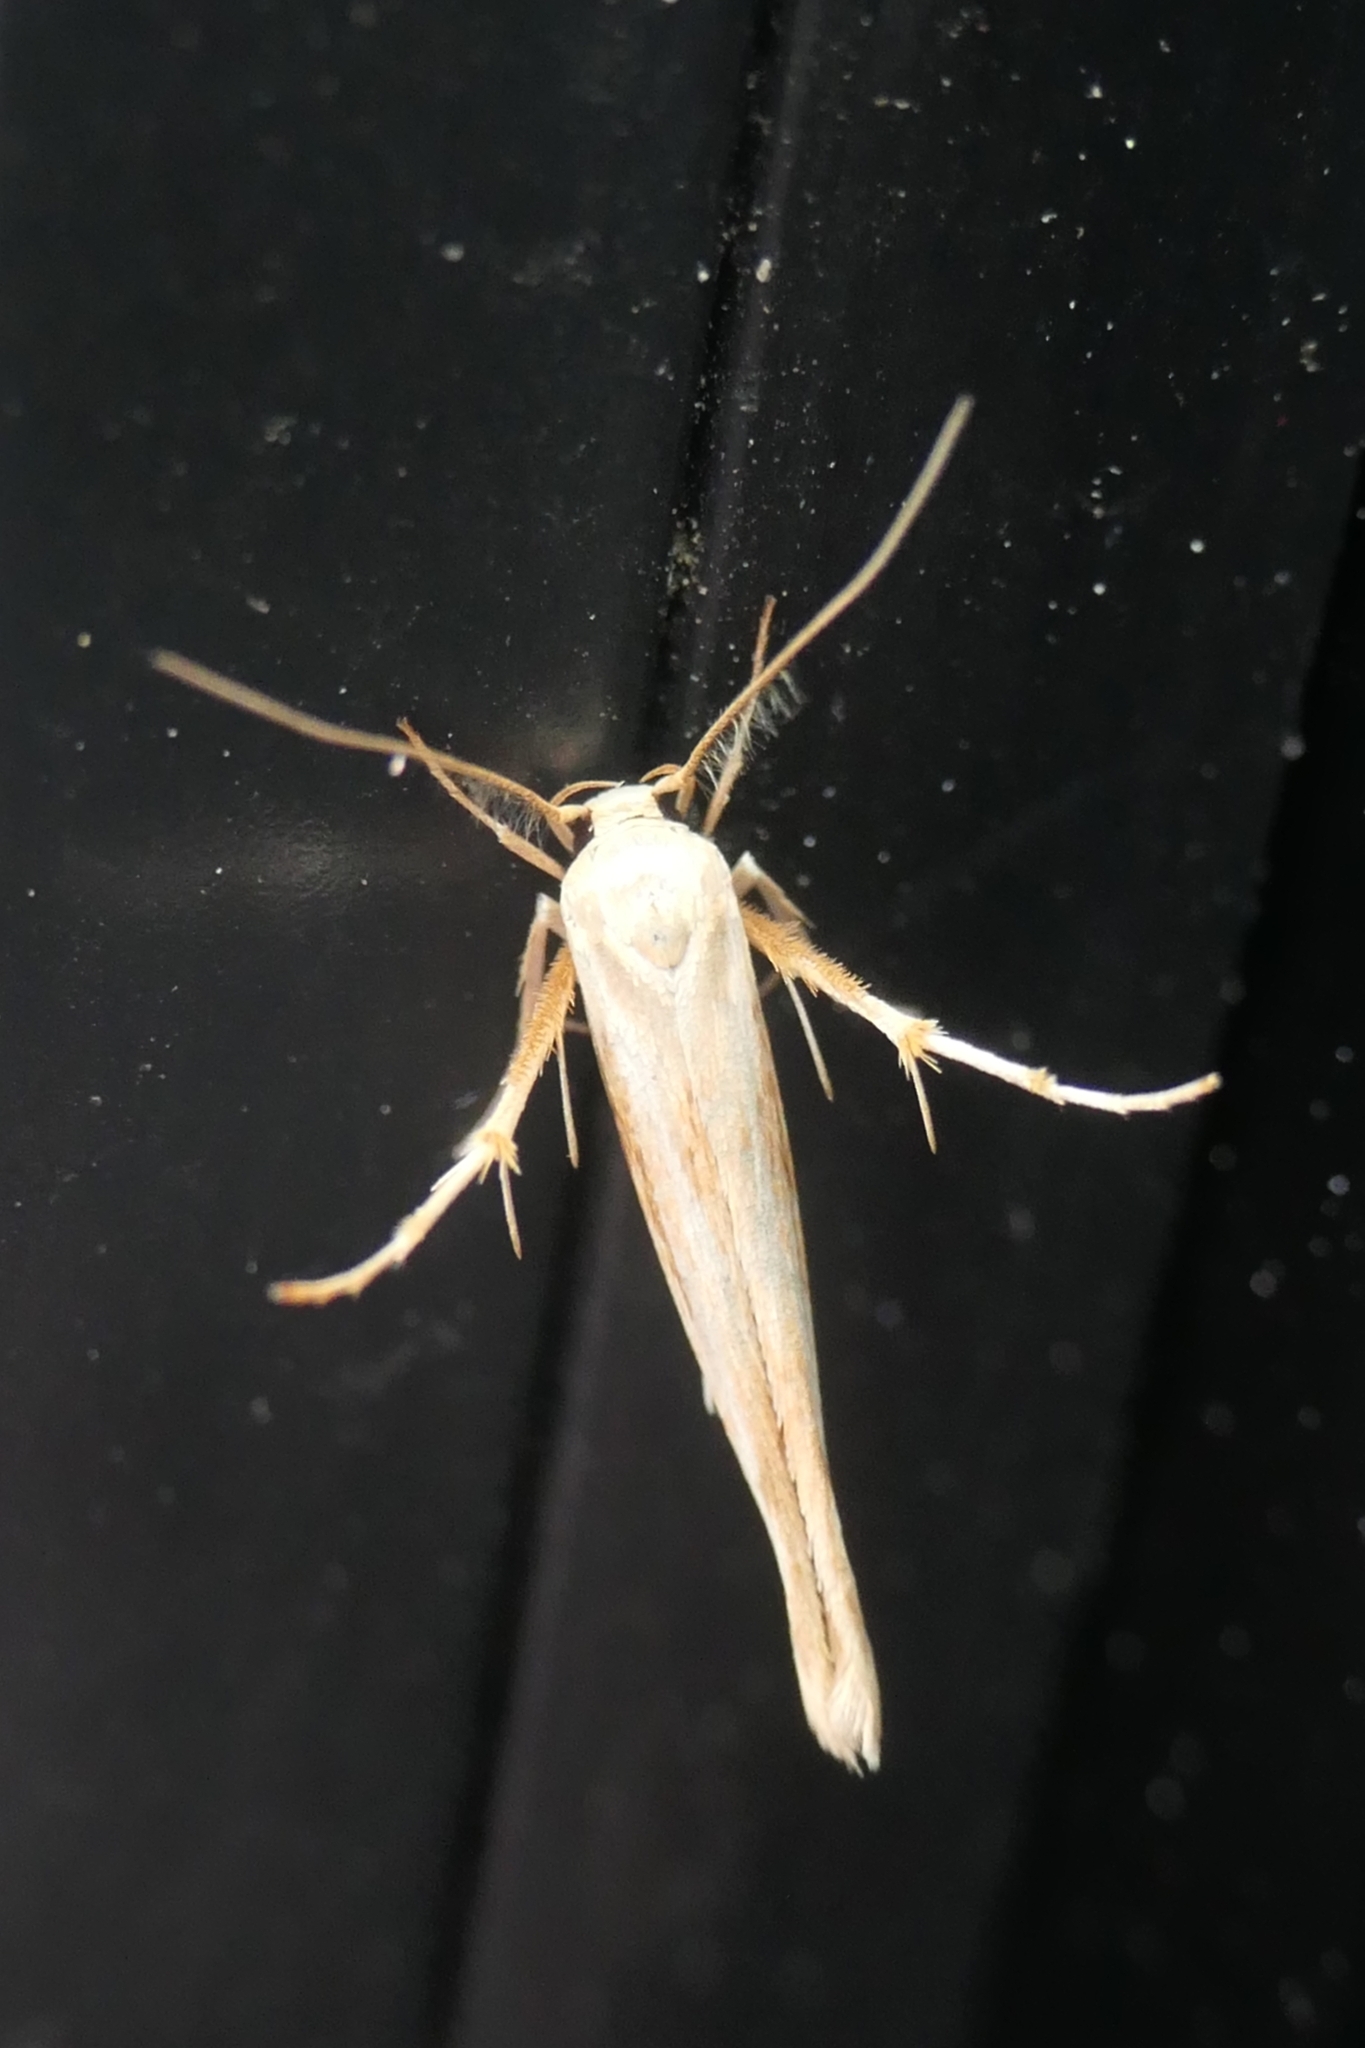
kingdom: Animalia
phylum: Arthropoda
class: Insecta
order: Lepidoptera
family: Stathmopodidae
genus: Stathmopoda
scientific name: Stathmopoda aposema
